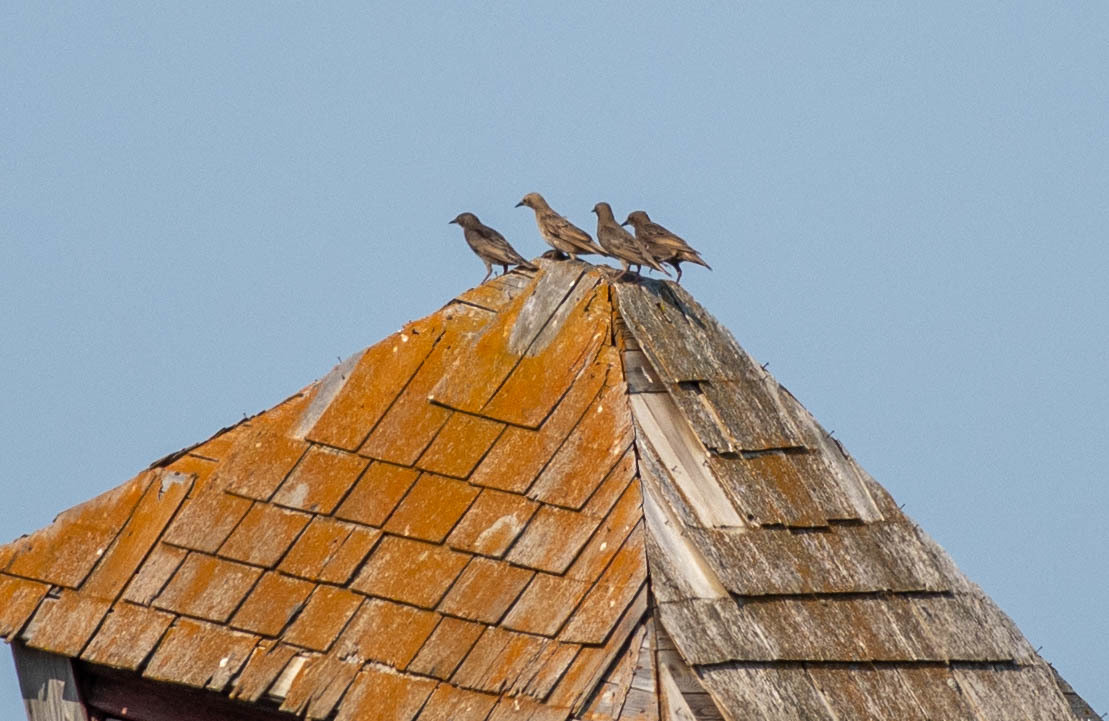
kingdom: Animalia
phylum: Chordata
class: Aves
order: Passeriformes
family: Sturnidae
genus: Sturnus
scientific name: Sturnus vulgaris
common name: Common starling
